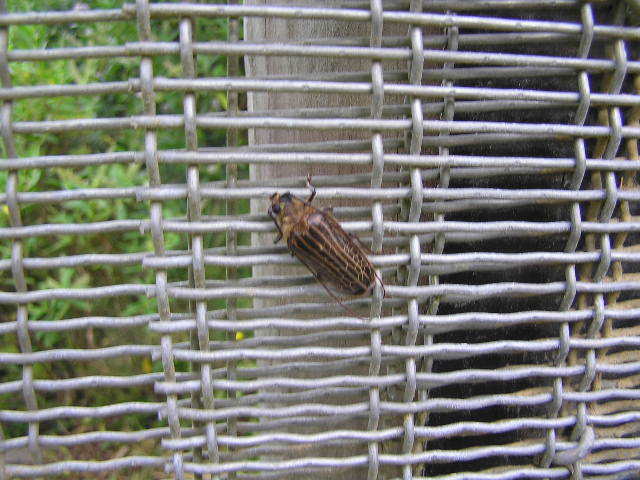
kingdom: Animalia
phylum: Arthropoda
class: Insecta
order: Coleoptera
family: Cerambycidae
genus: Prionoplus
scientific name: Prionoplus reticularis
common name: Huhu beetle
